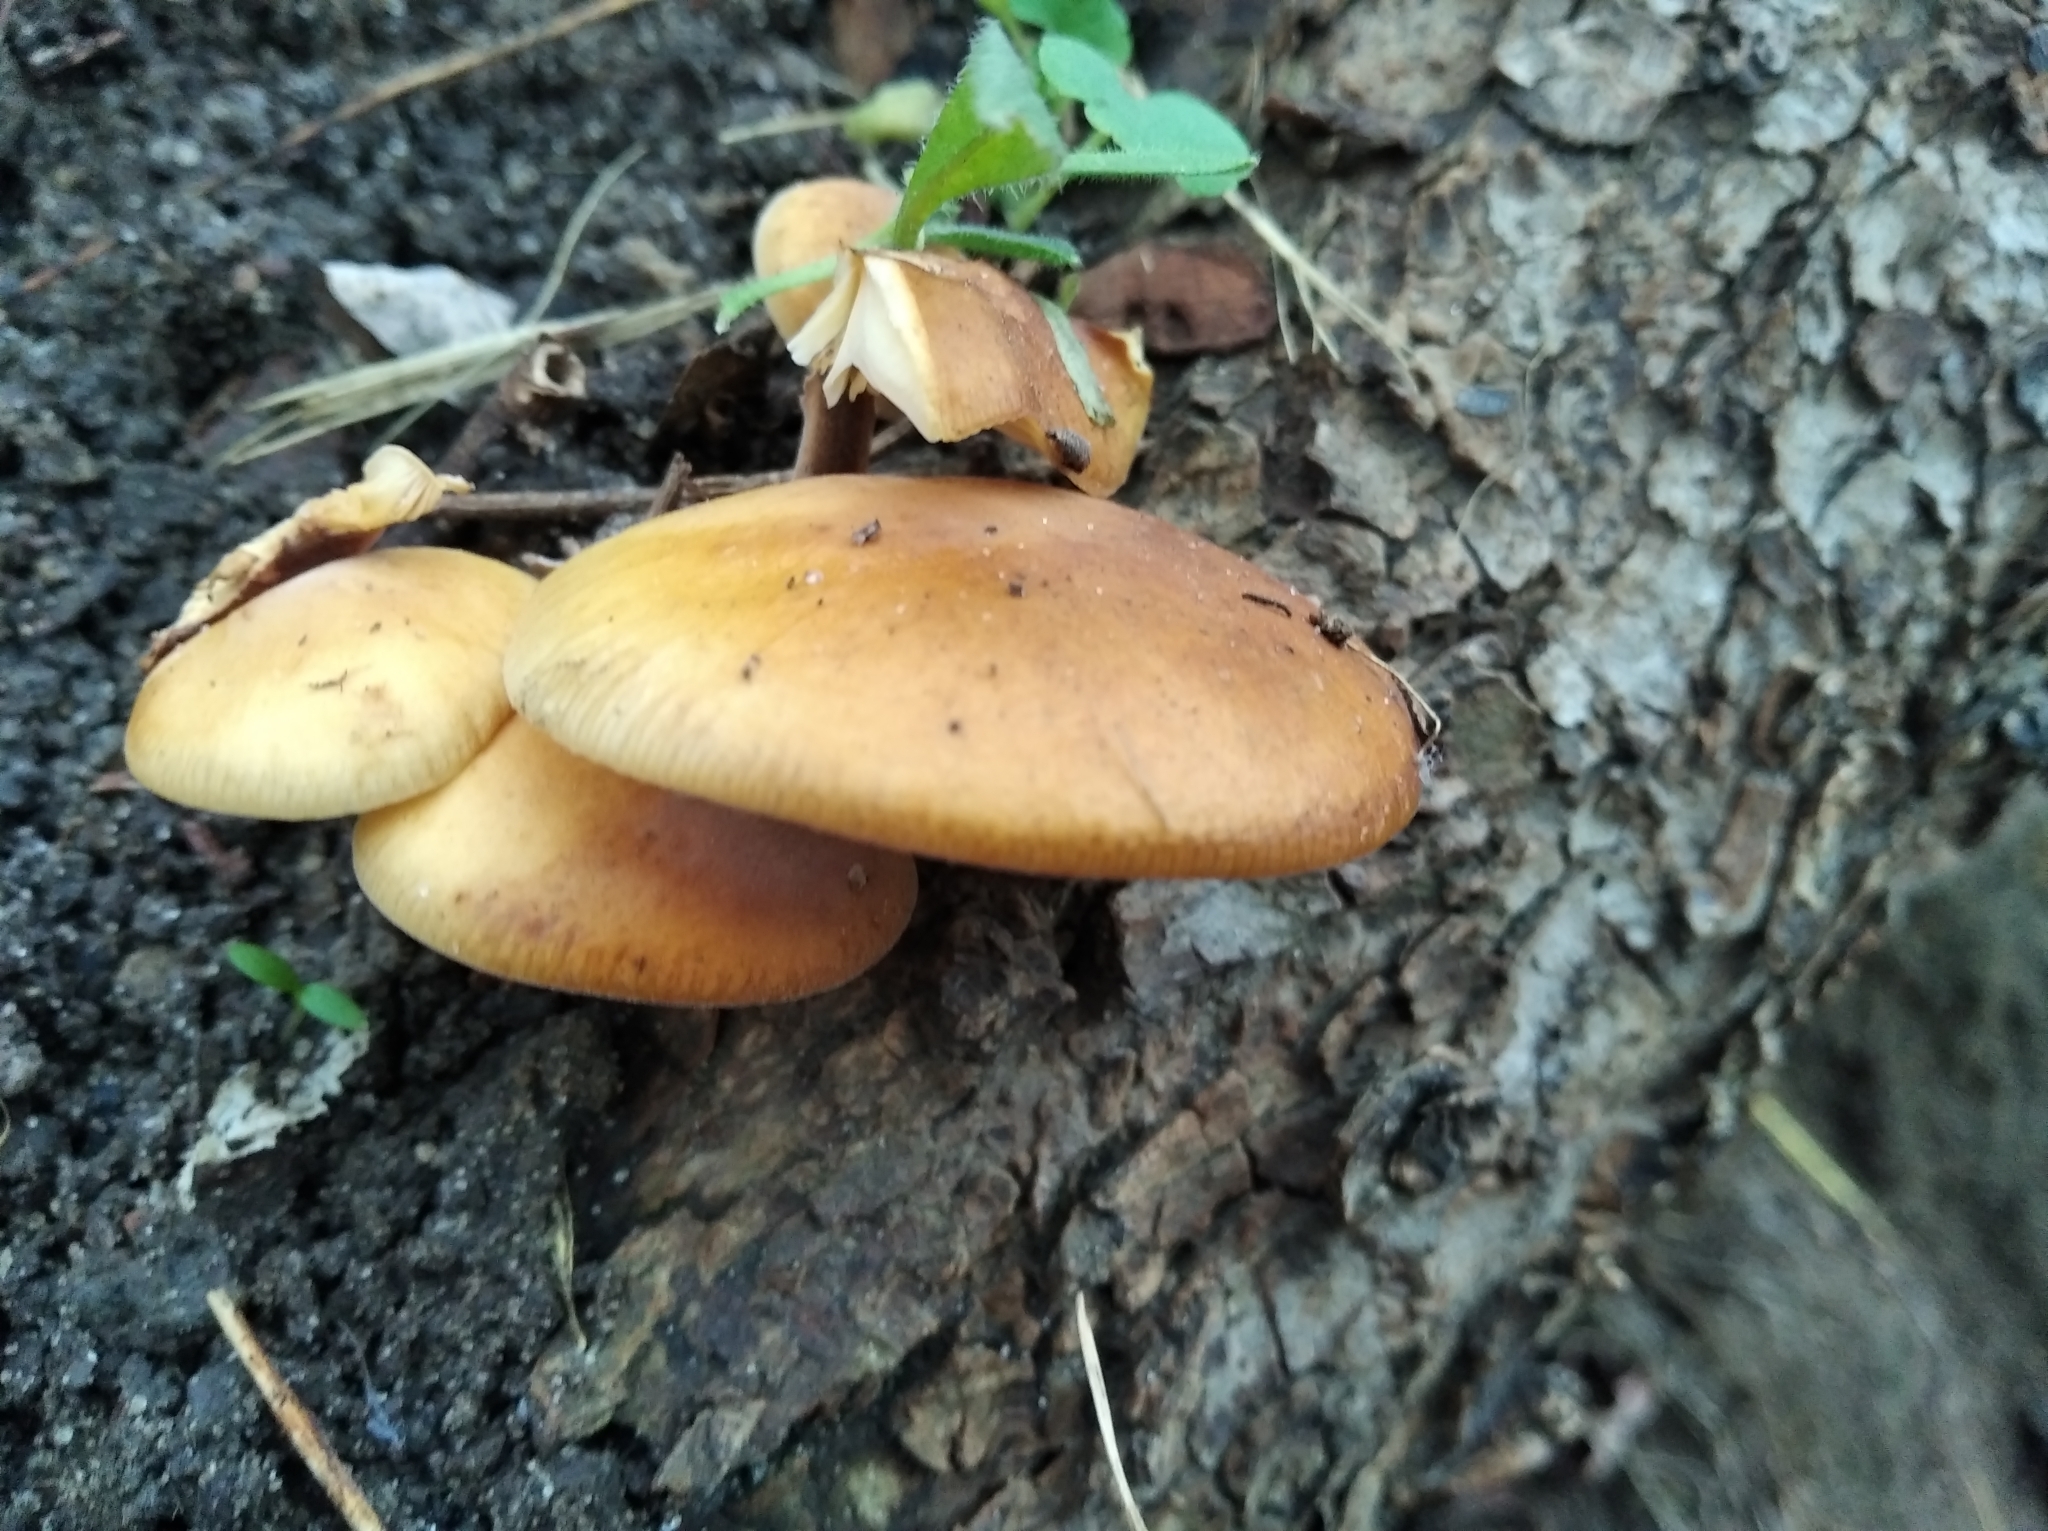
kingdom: Fungi
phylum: Basidiomycota
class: Agaricomycetes
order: Agaricales
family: Physalacriaceae
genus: Flammulina
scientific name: Flammulina
